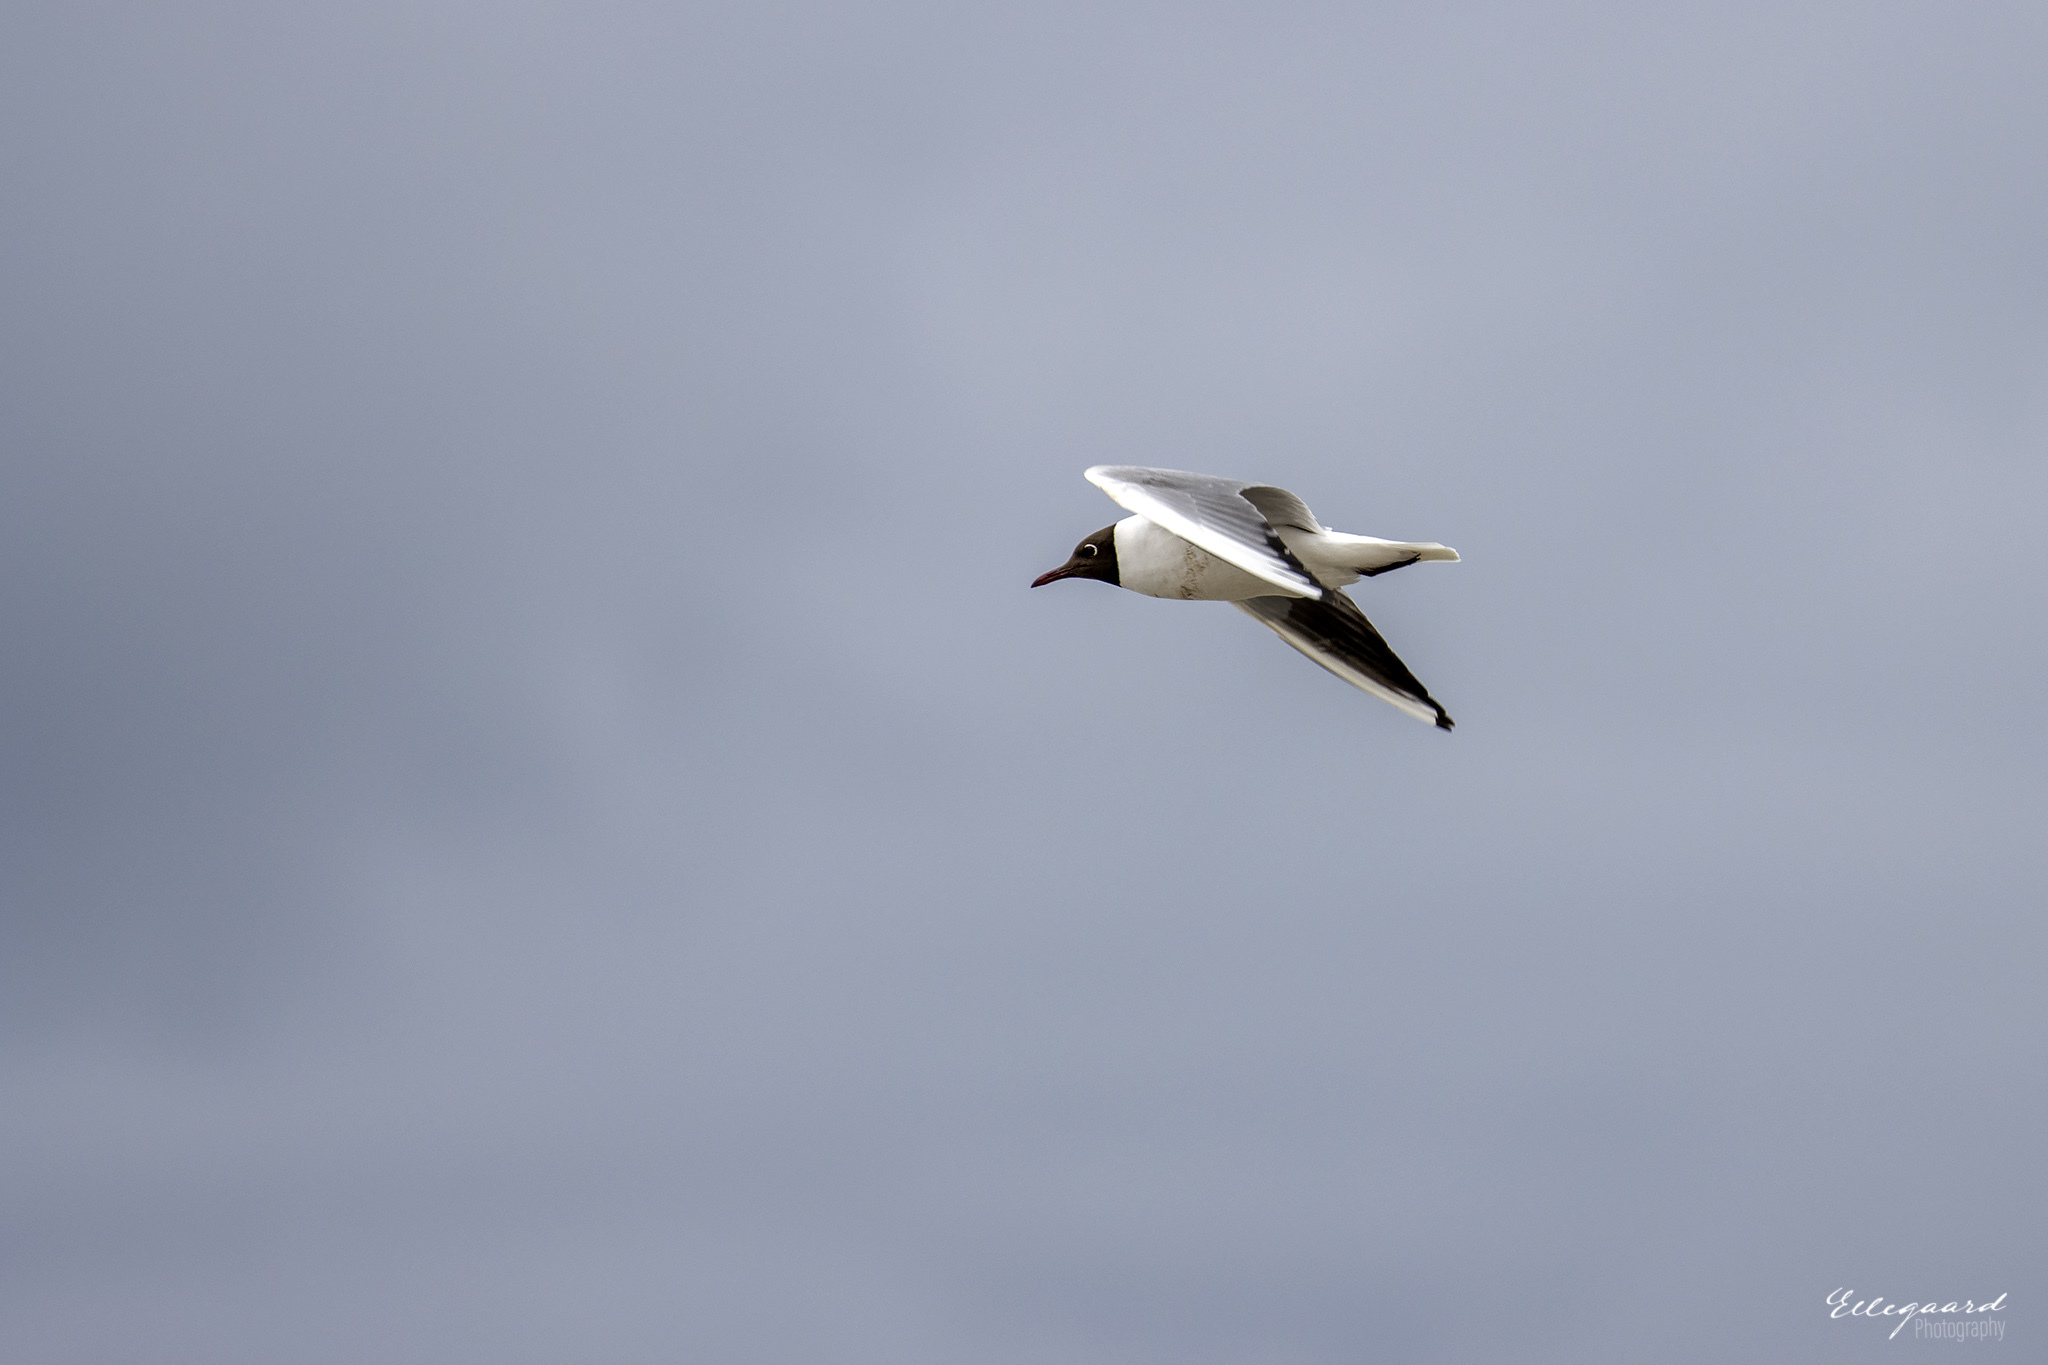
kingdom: Animalia
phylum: Chordata
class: Aves
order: Charadriiformes
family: Laridae
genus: Chroicocephalus
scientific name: Chroicocephalus ridibundus
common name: Black-headed gull
